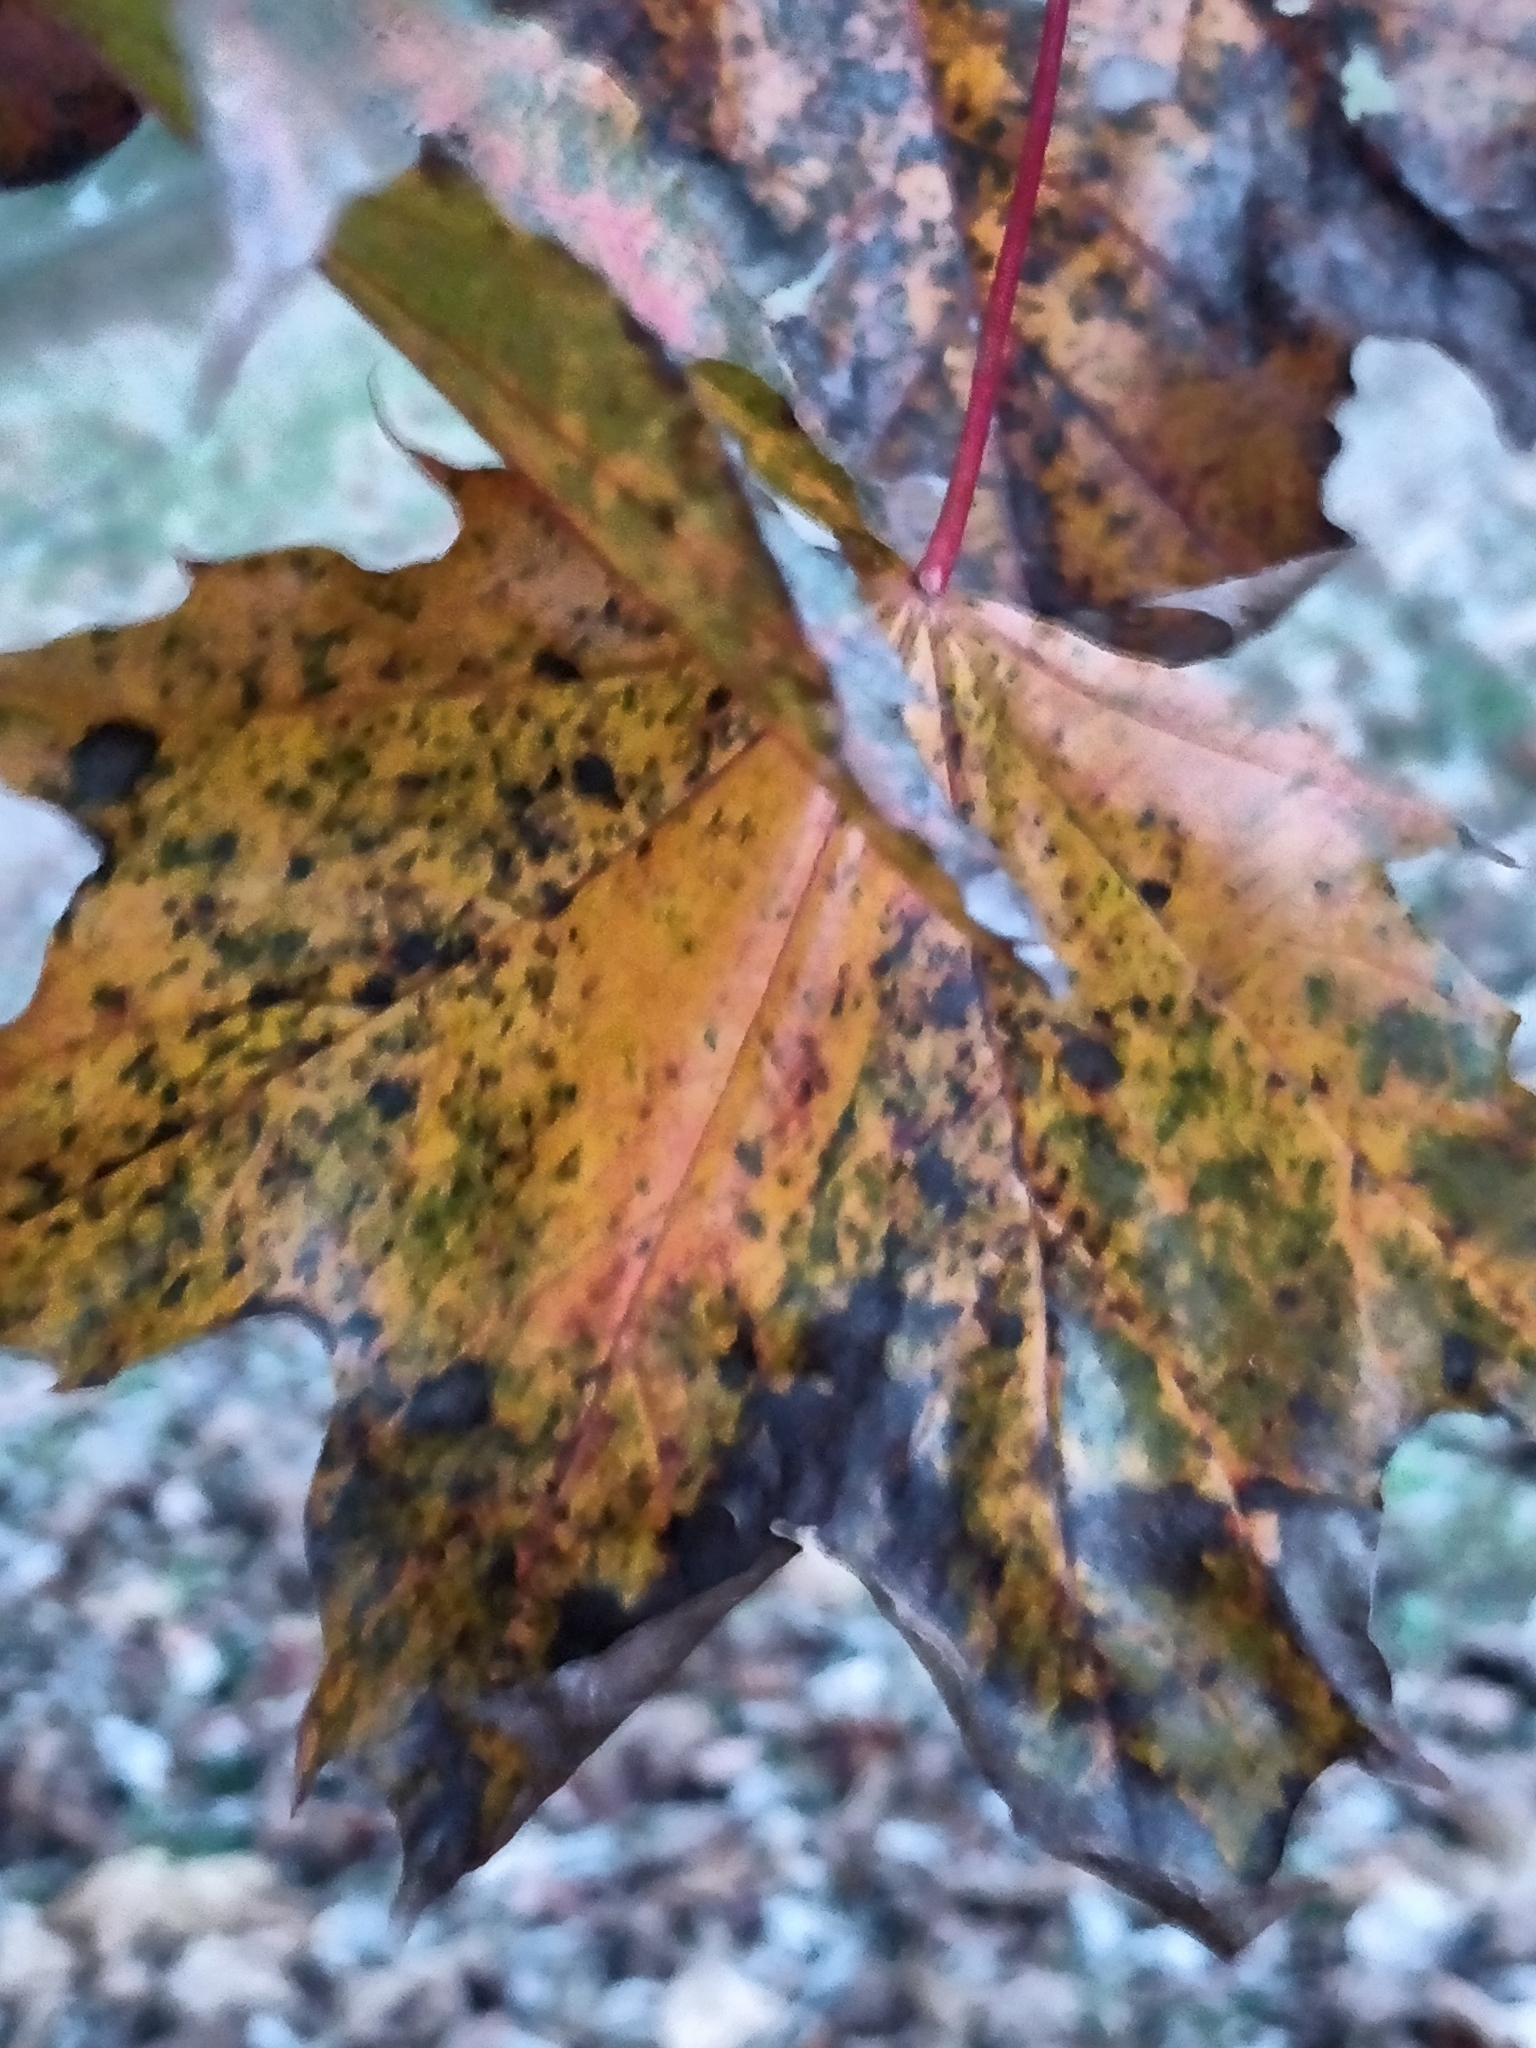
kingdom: Plantae
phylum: Tracheophyta
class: Magnoliopsida
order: Sapindales
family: Sapindaceae
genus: Acer
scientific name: Acer platanoides
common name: Norway maple
